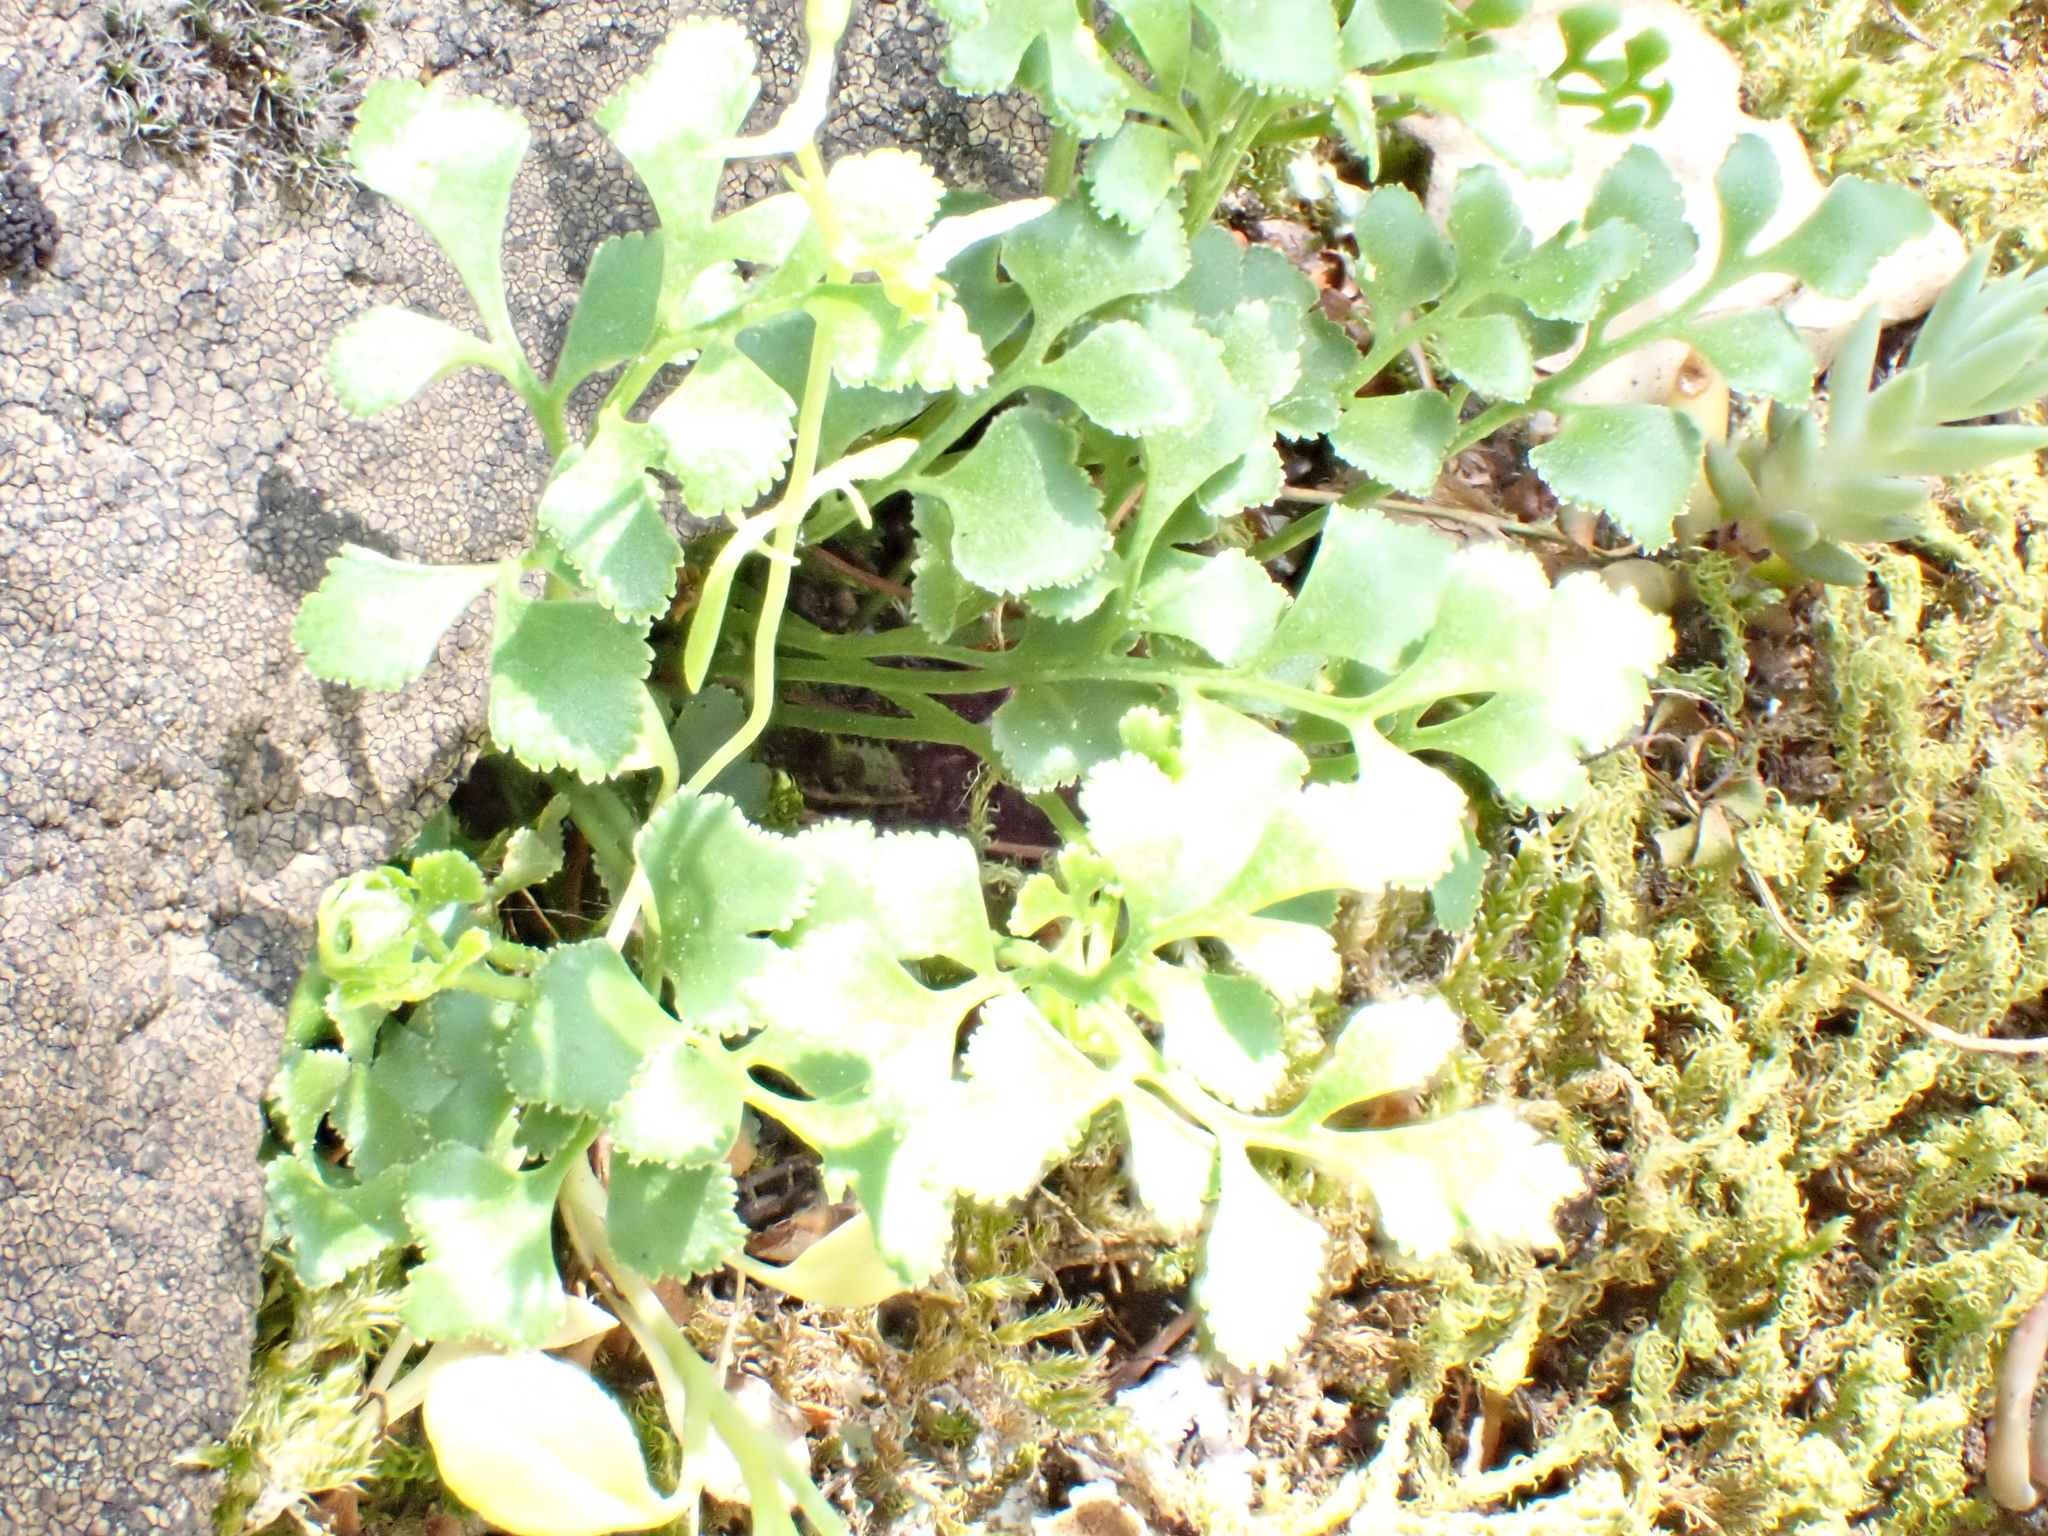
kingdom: Plantae
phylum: Tracheophyta
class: Polypodiopsida
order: Polypodiales
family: Aspleniaceae
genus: Asplenium
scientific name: Asplenium ruta-muraria
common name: Wall-rue
